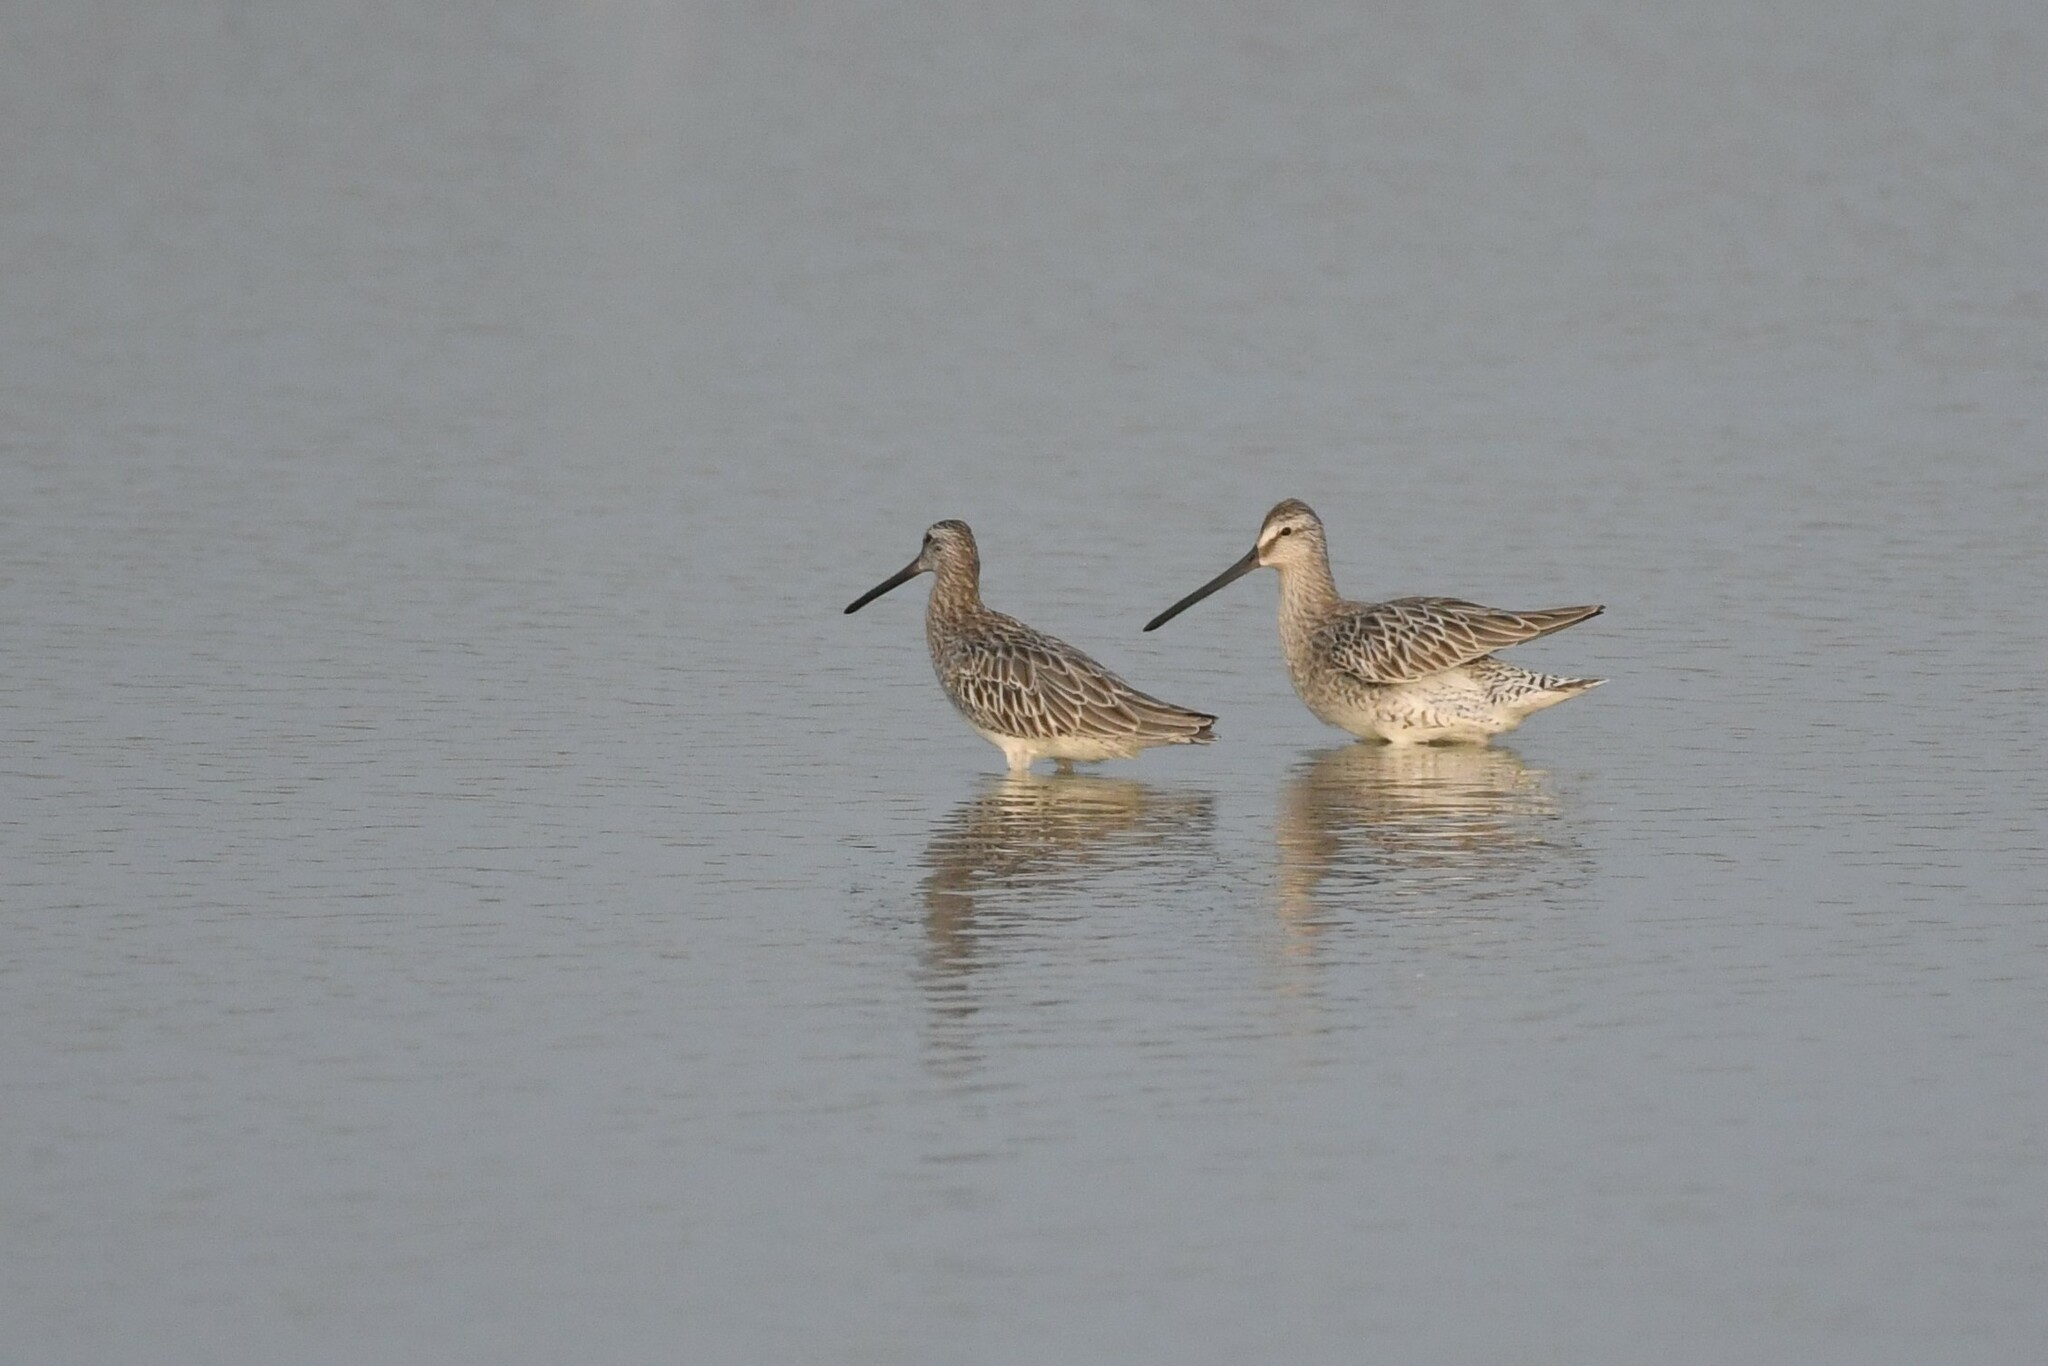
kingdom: Animalia
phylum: Chordata
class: Aves
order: Charadriiformes
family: Scolopacidae
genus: Limnodromus
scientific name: Limnodromus semipalmatus
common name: Asian dowitcher
